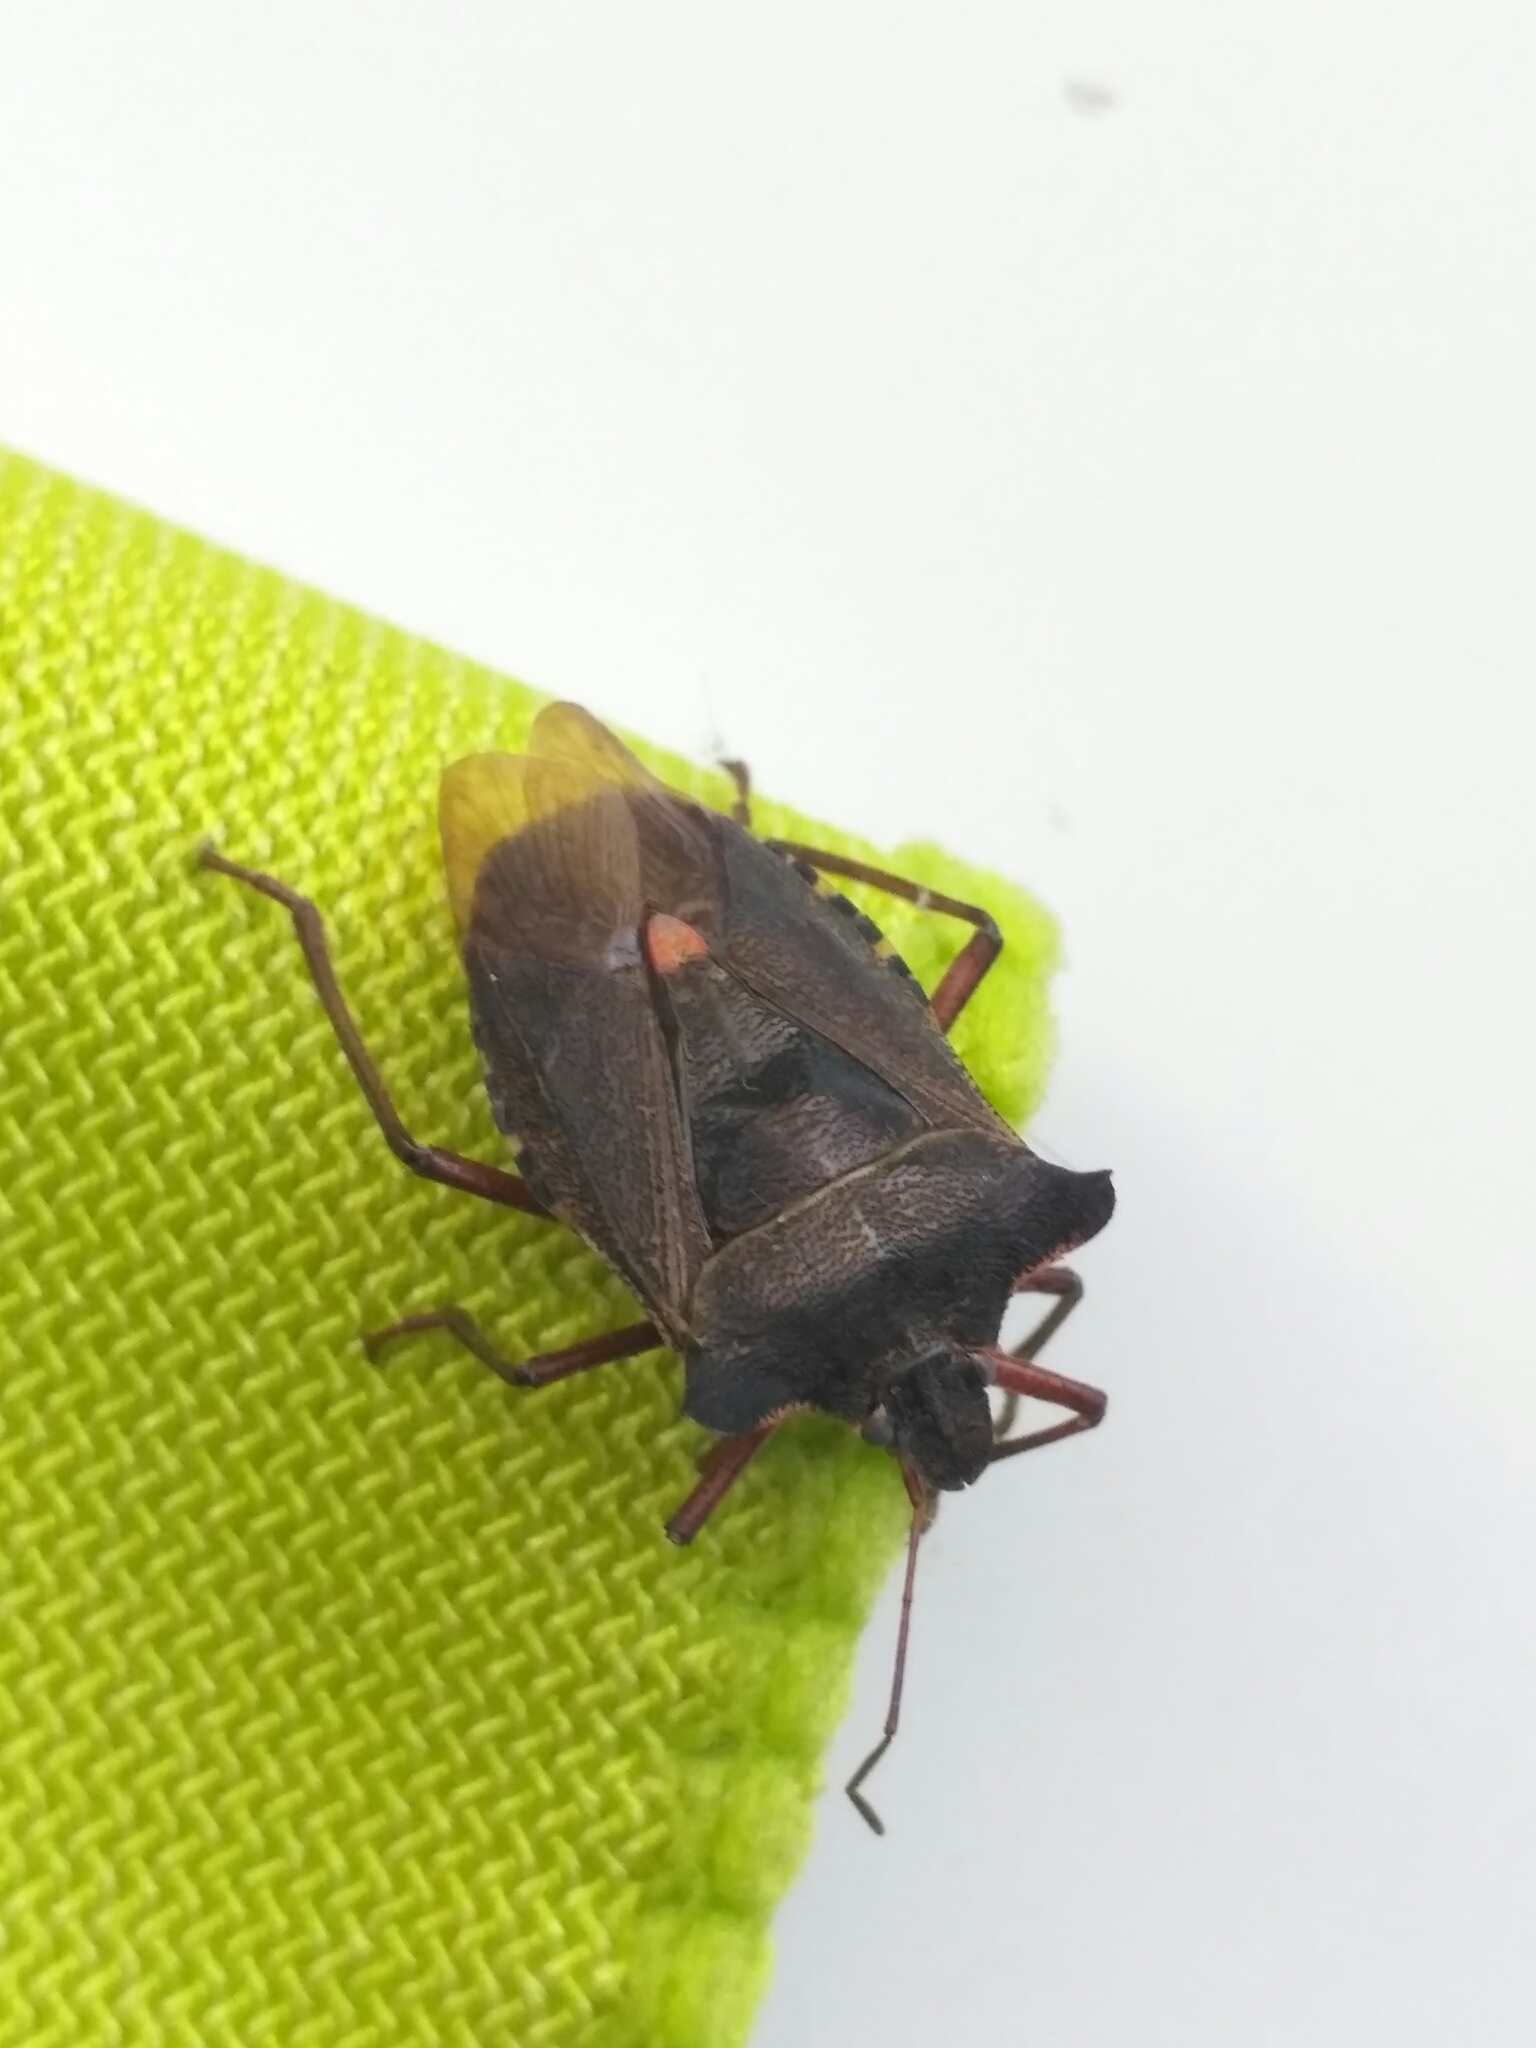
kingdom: Animalia
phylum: Arthropoda
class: Insecta
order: Hemiptera
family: Pentatomidae
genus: Pentatoma
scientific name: Pentatoma rufipes
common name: Forest bug
